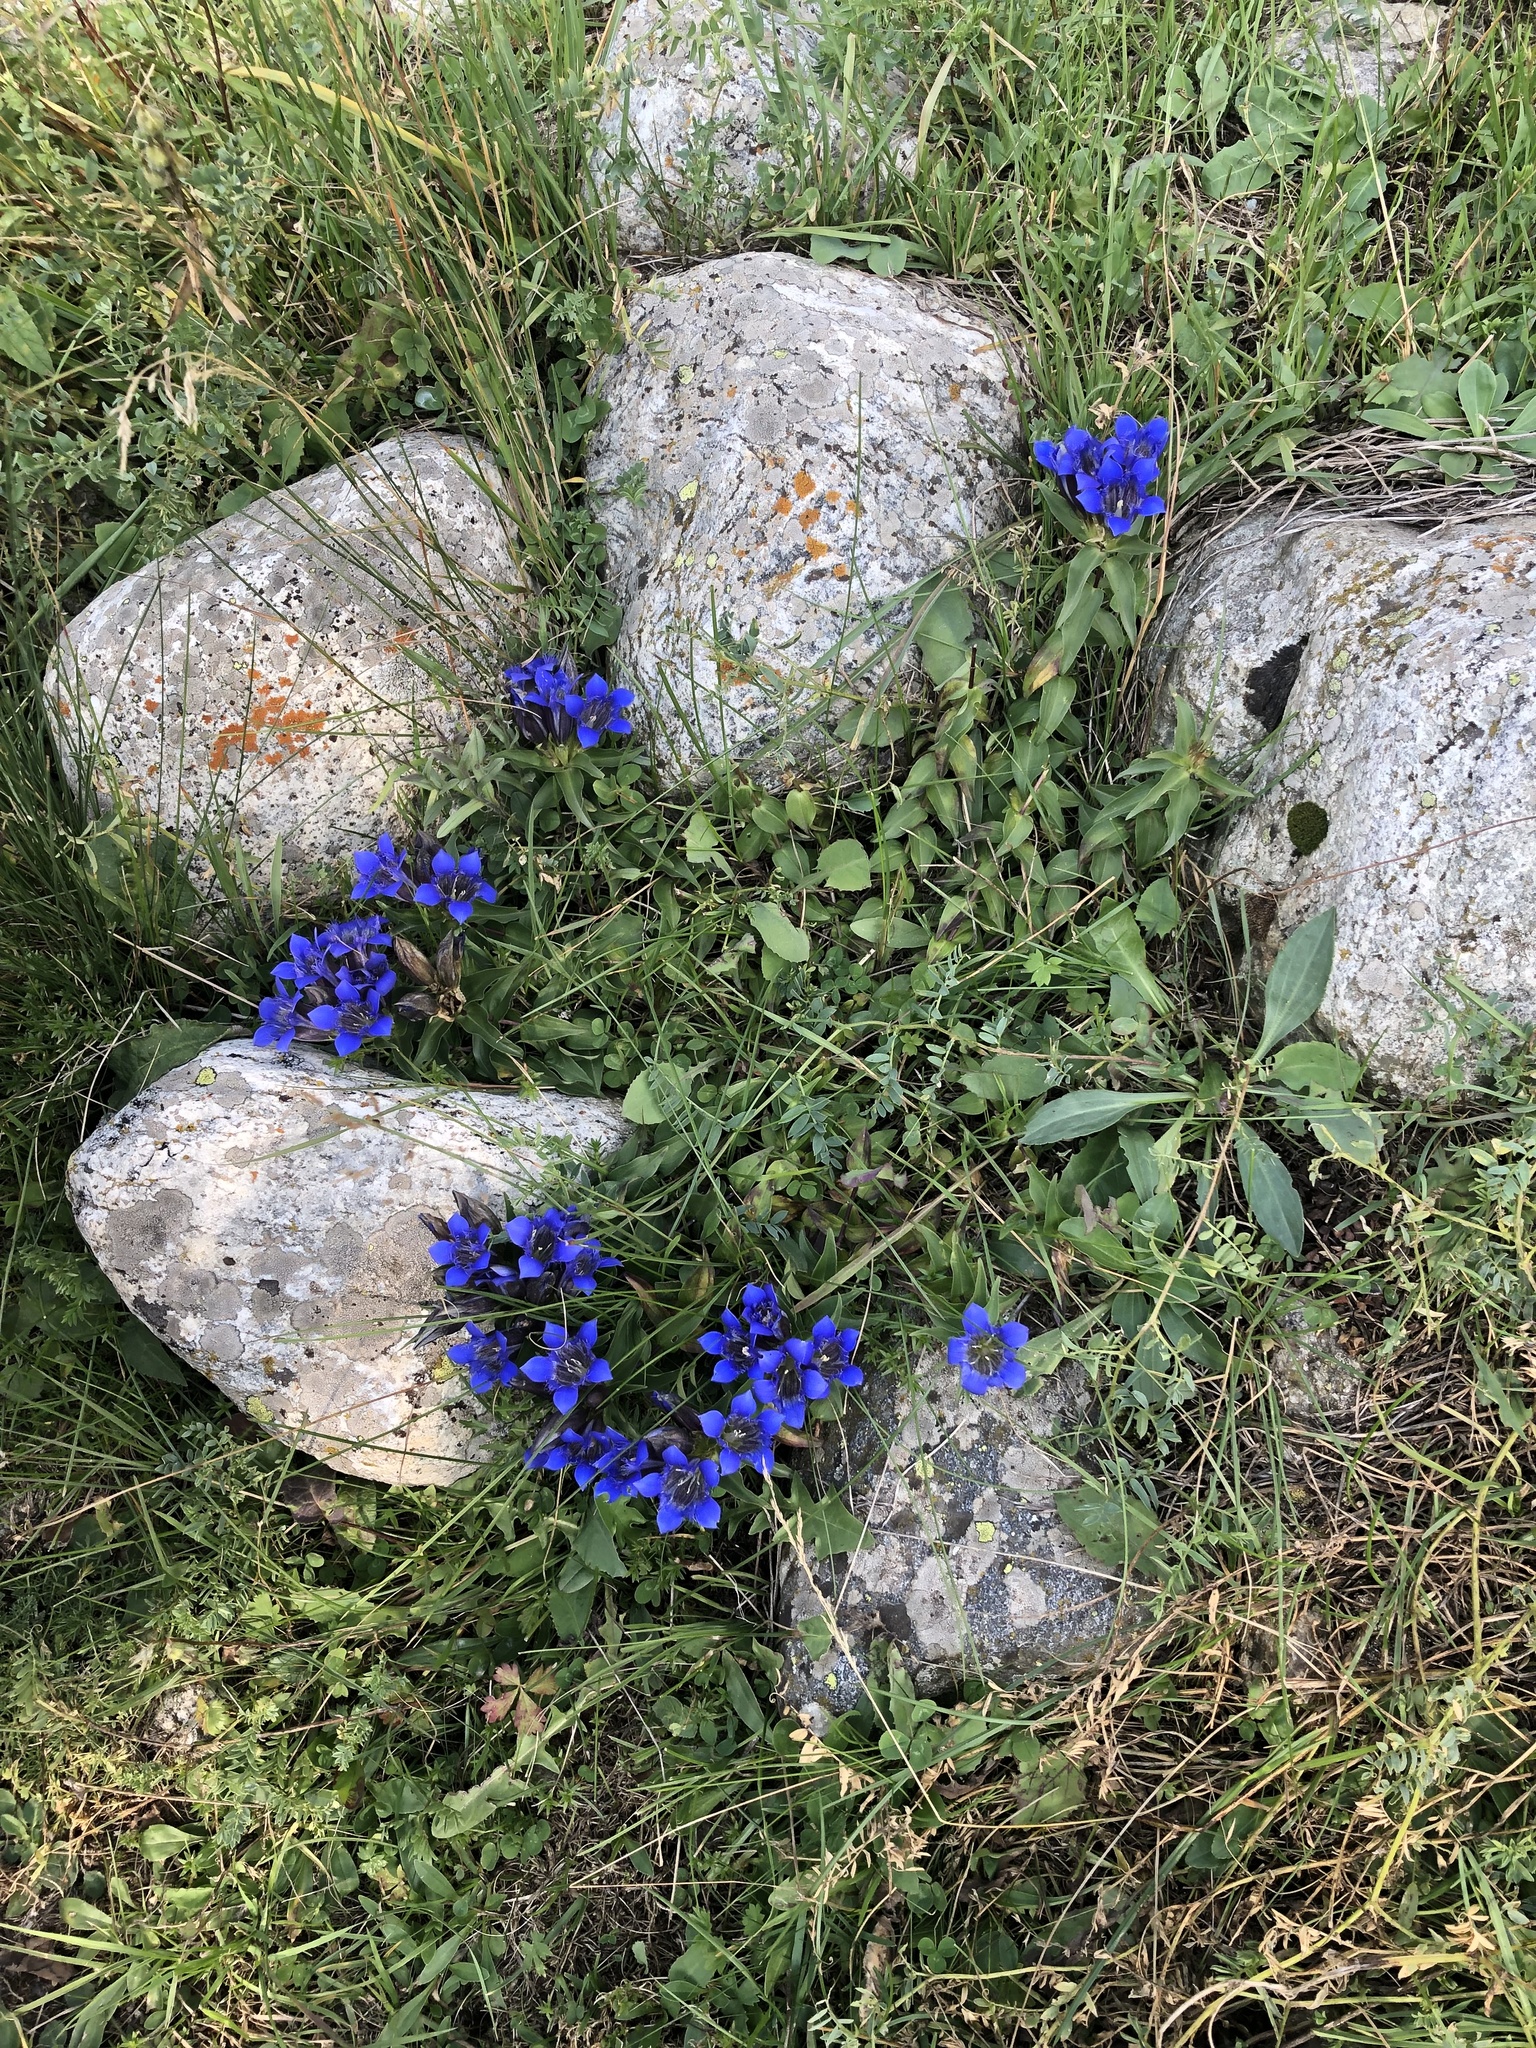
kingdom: Plantae
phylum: Tracheophyta
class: Magnoliopsida
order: Gentianales
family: Gentianaceae
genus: Gentiana
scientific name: Gentiana septemfida
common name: Crested gentian
